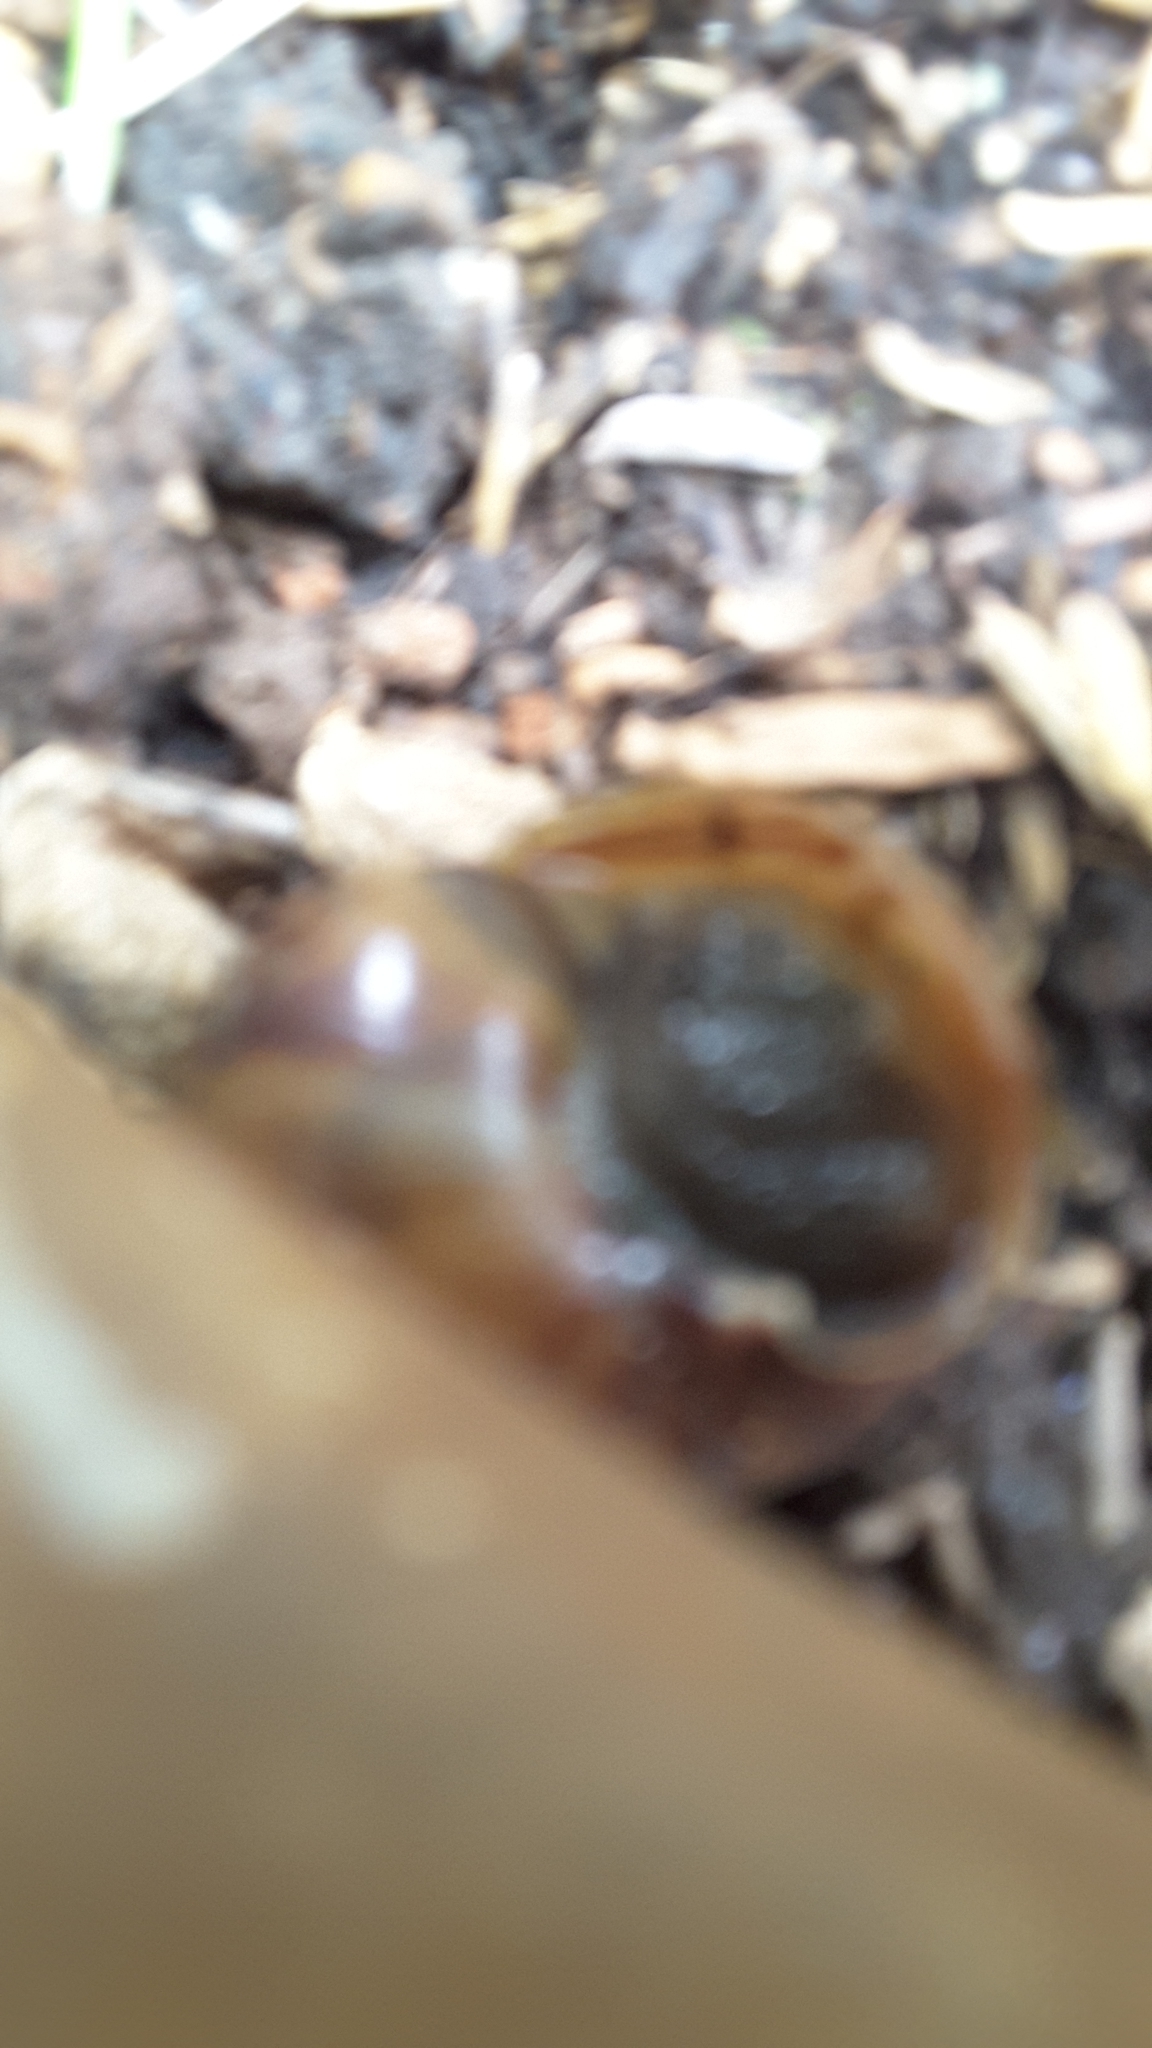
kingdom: Animalia
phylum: Mollusca
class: Gastropoda
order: Stylommatophora
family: Achatinidae
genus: Lissachatina
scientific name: Lissachatina fulica
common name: Giant african snail
